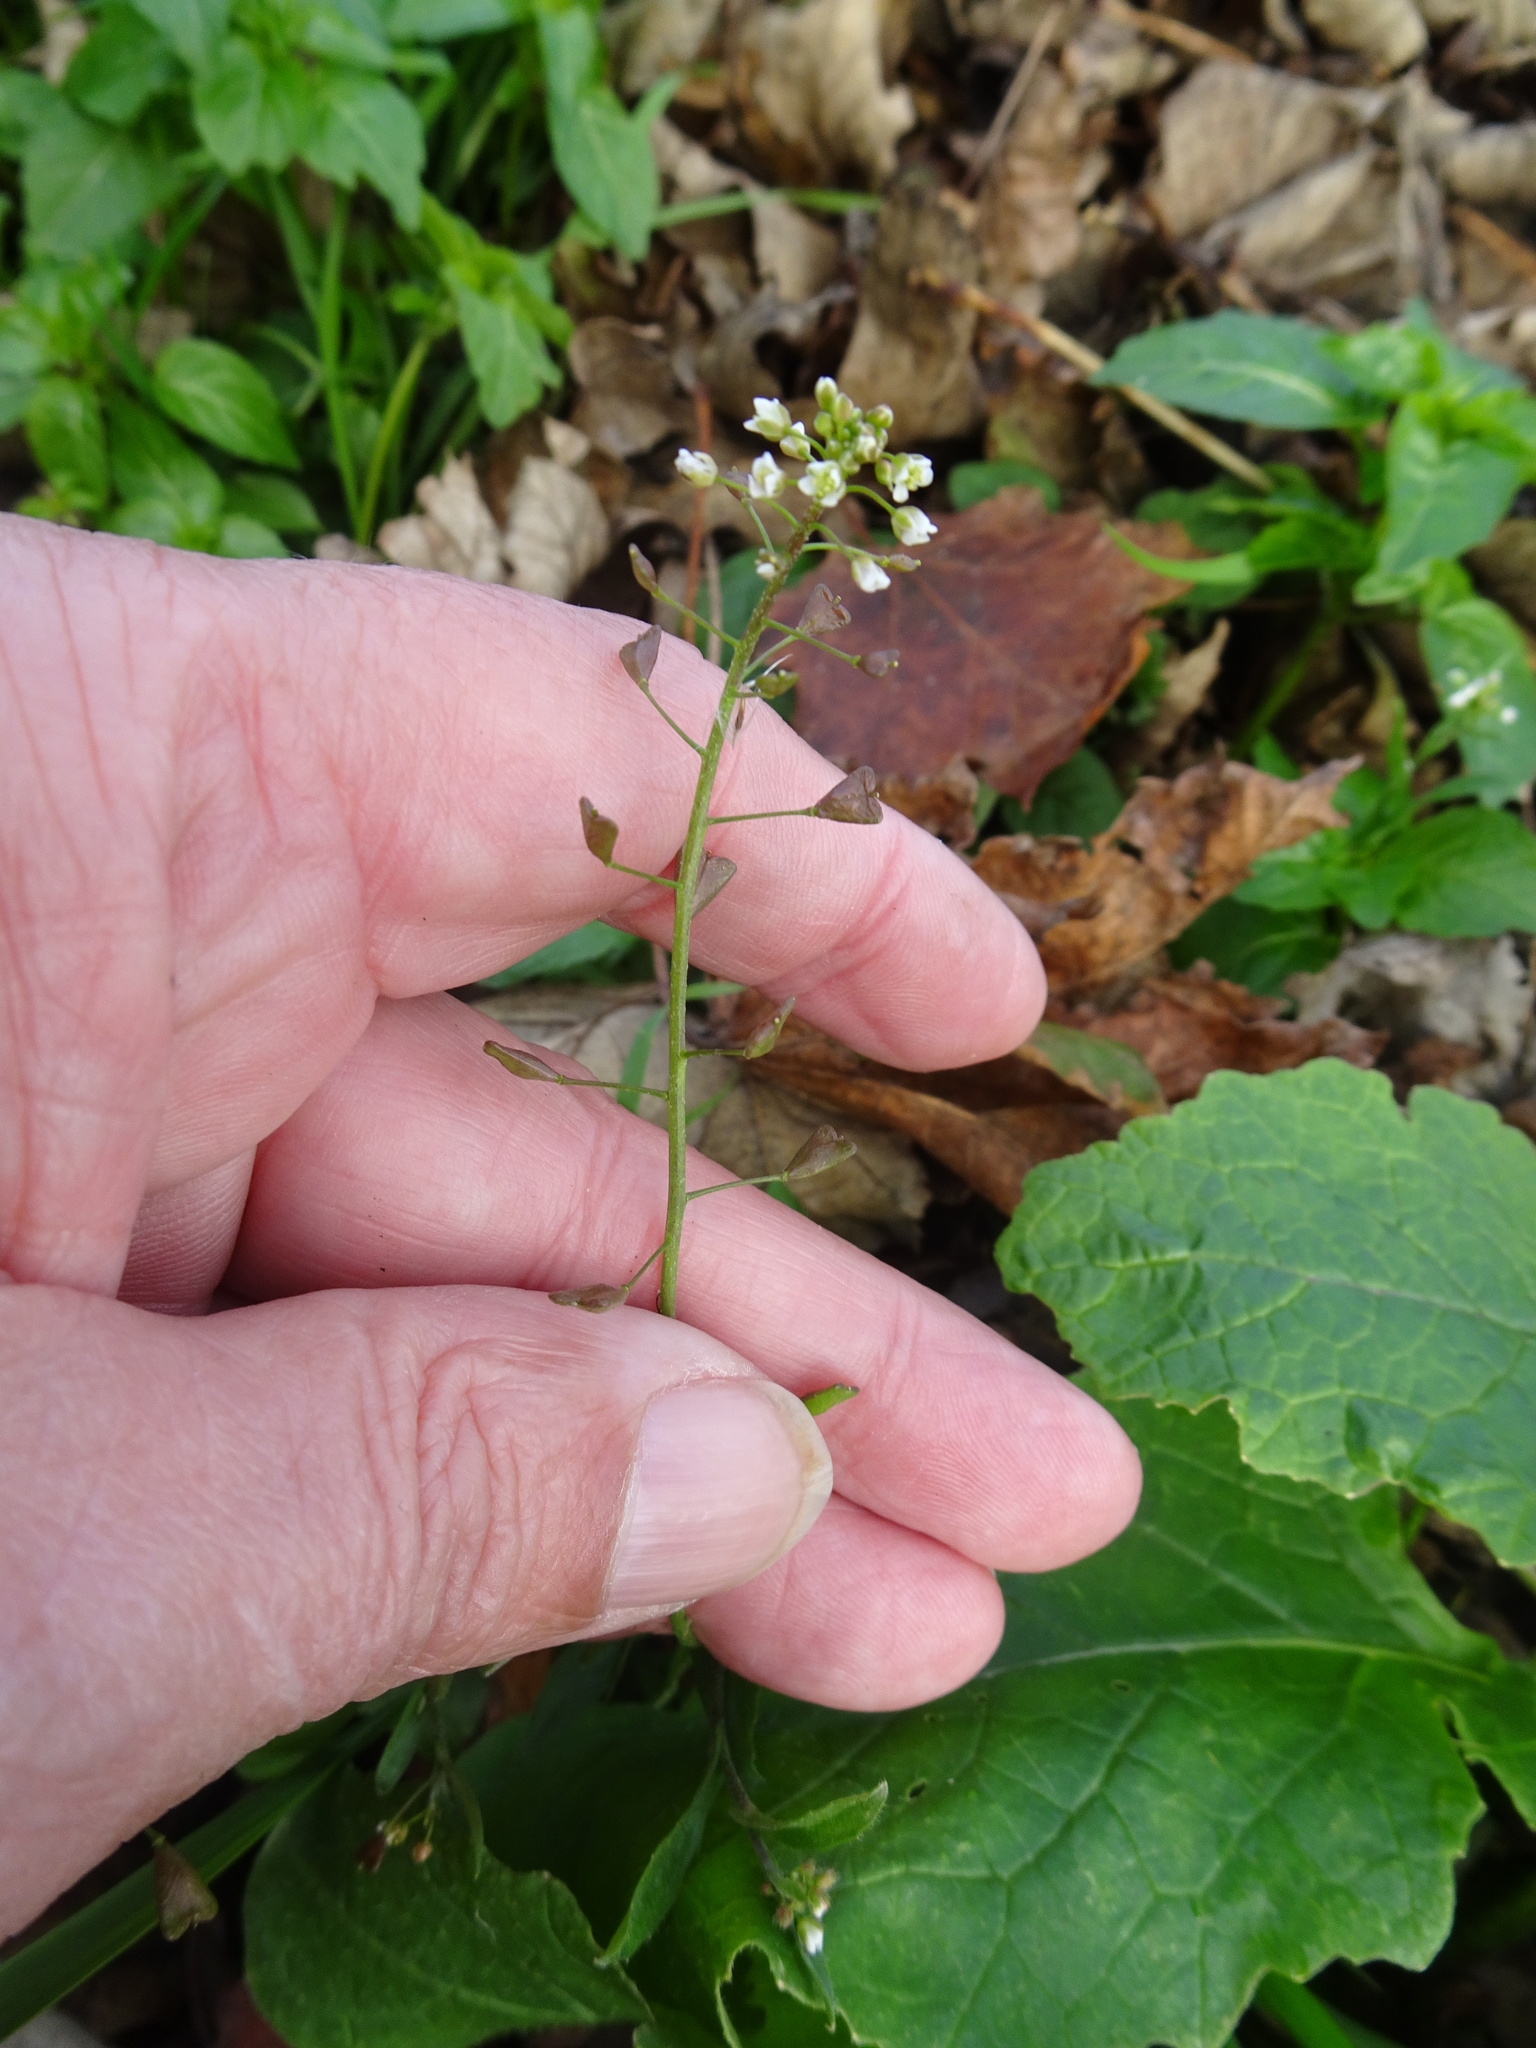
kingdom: Plantae
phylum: Tracheophyta
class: Magnoliopsida
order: Brassicales
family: Brassicaceae
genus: Capsella
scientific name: Capsella bursa-pastoris
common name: Shepherd's purse
